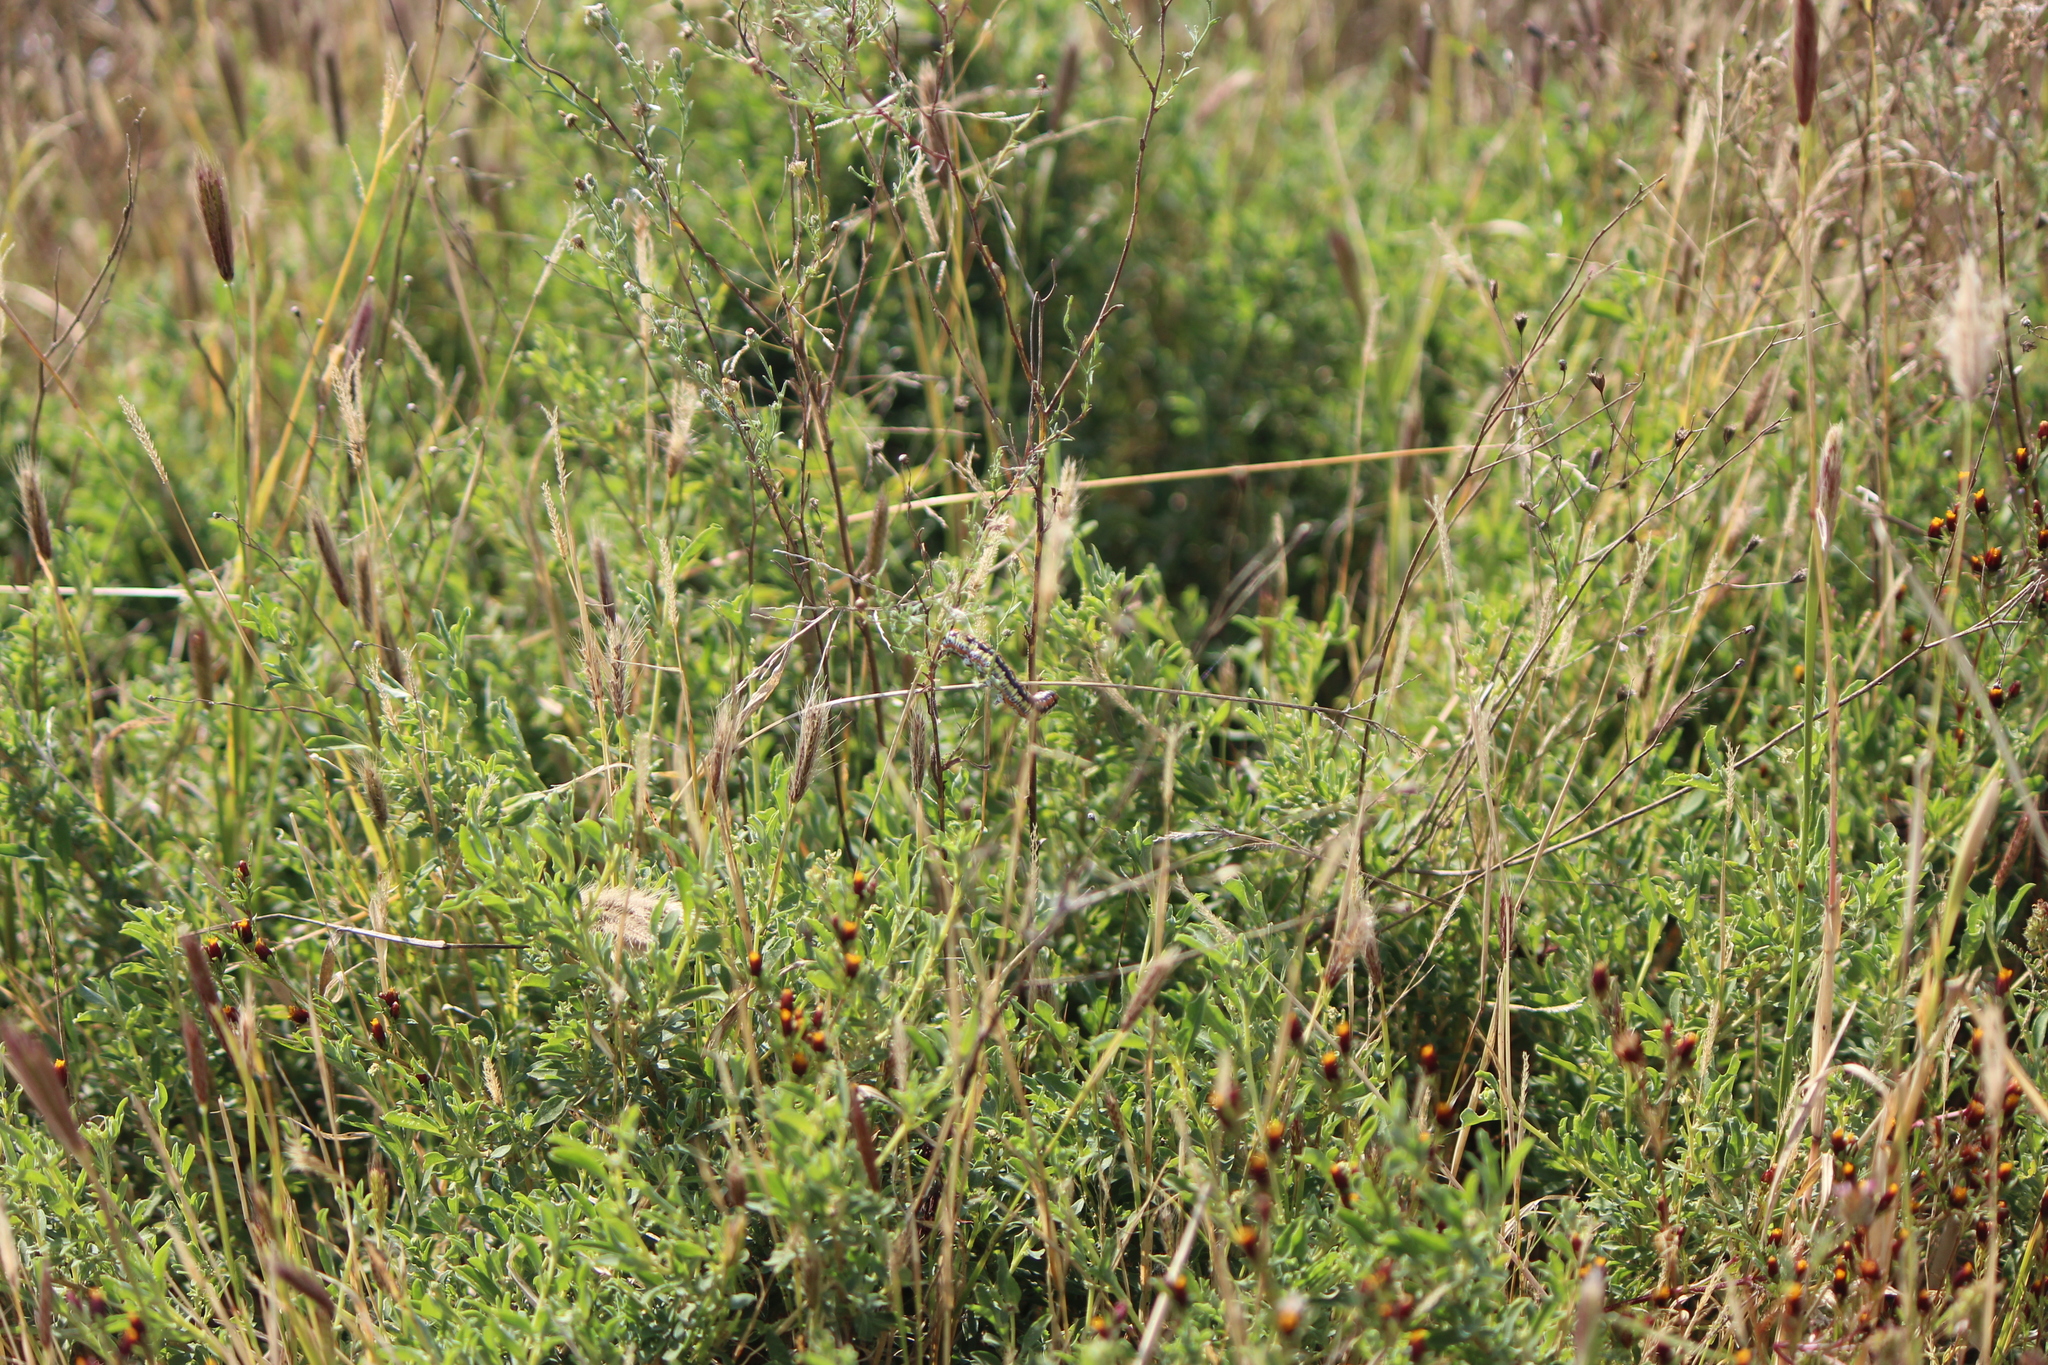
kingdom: Animalia
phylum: Arthropoda
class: Insecta
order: Lepidoptera
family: Noctuidae
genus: Cucullia
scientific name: Cucullia dorsalis
